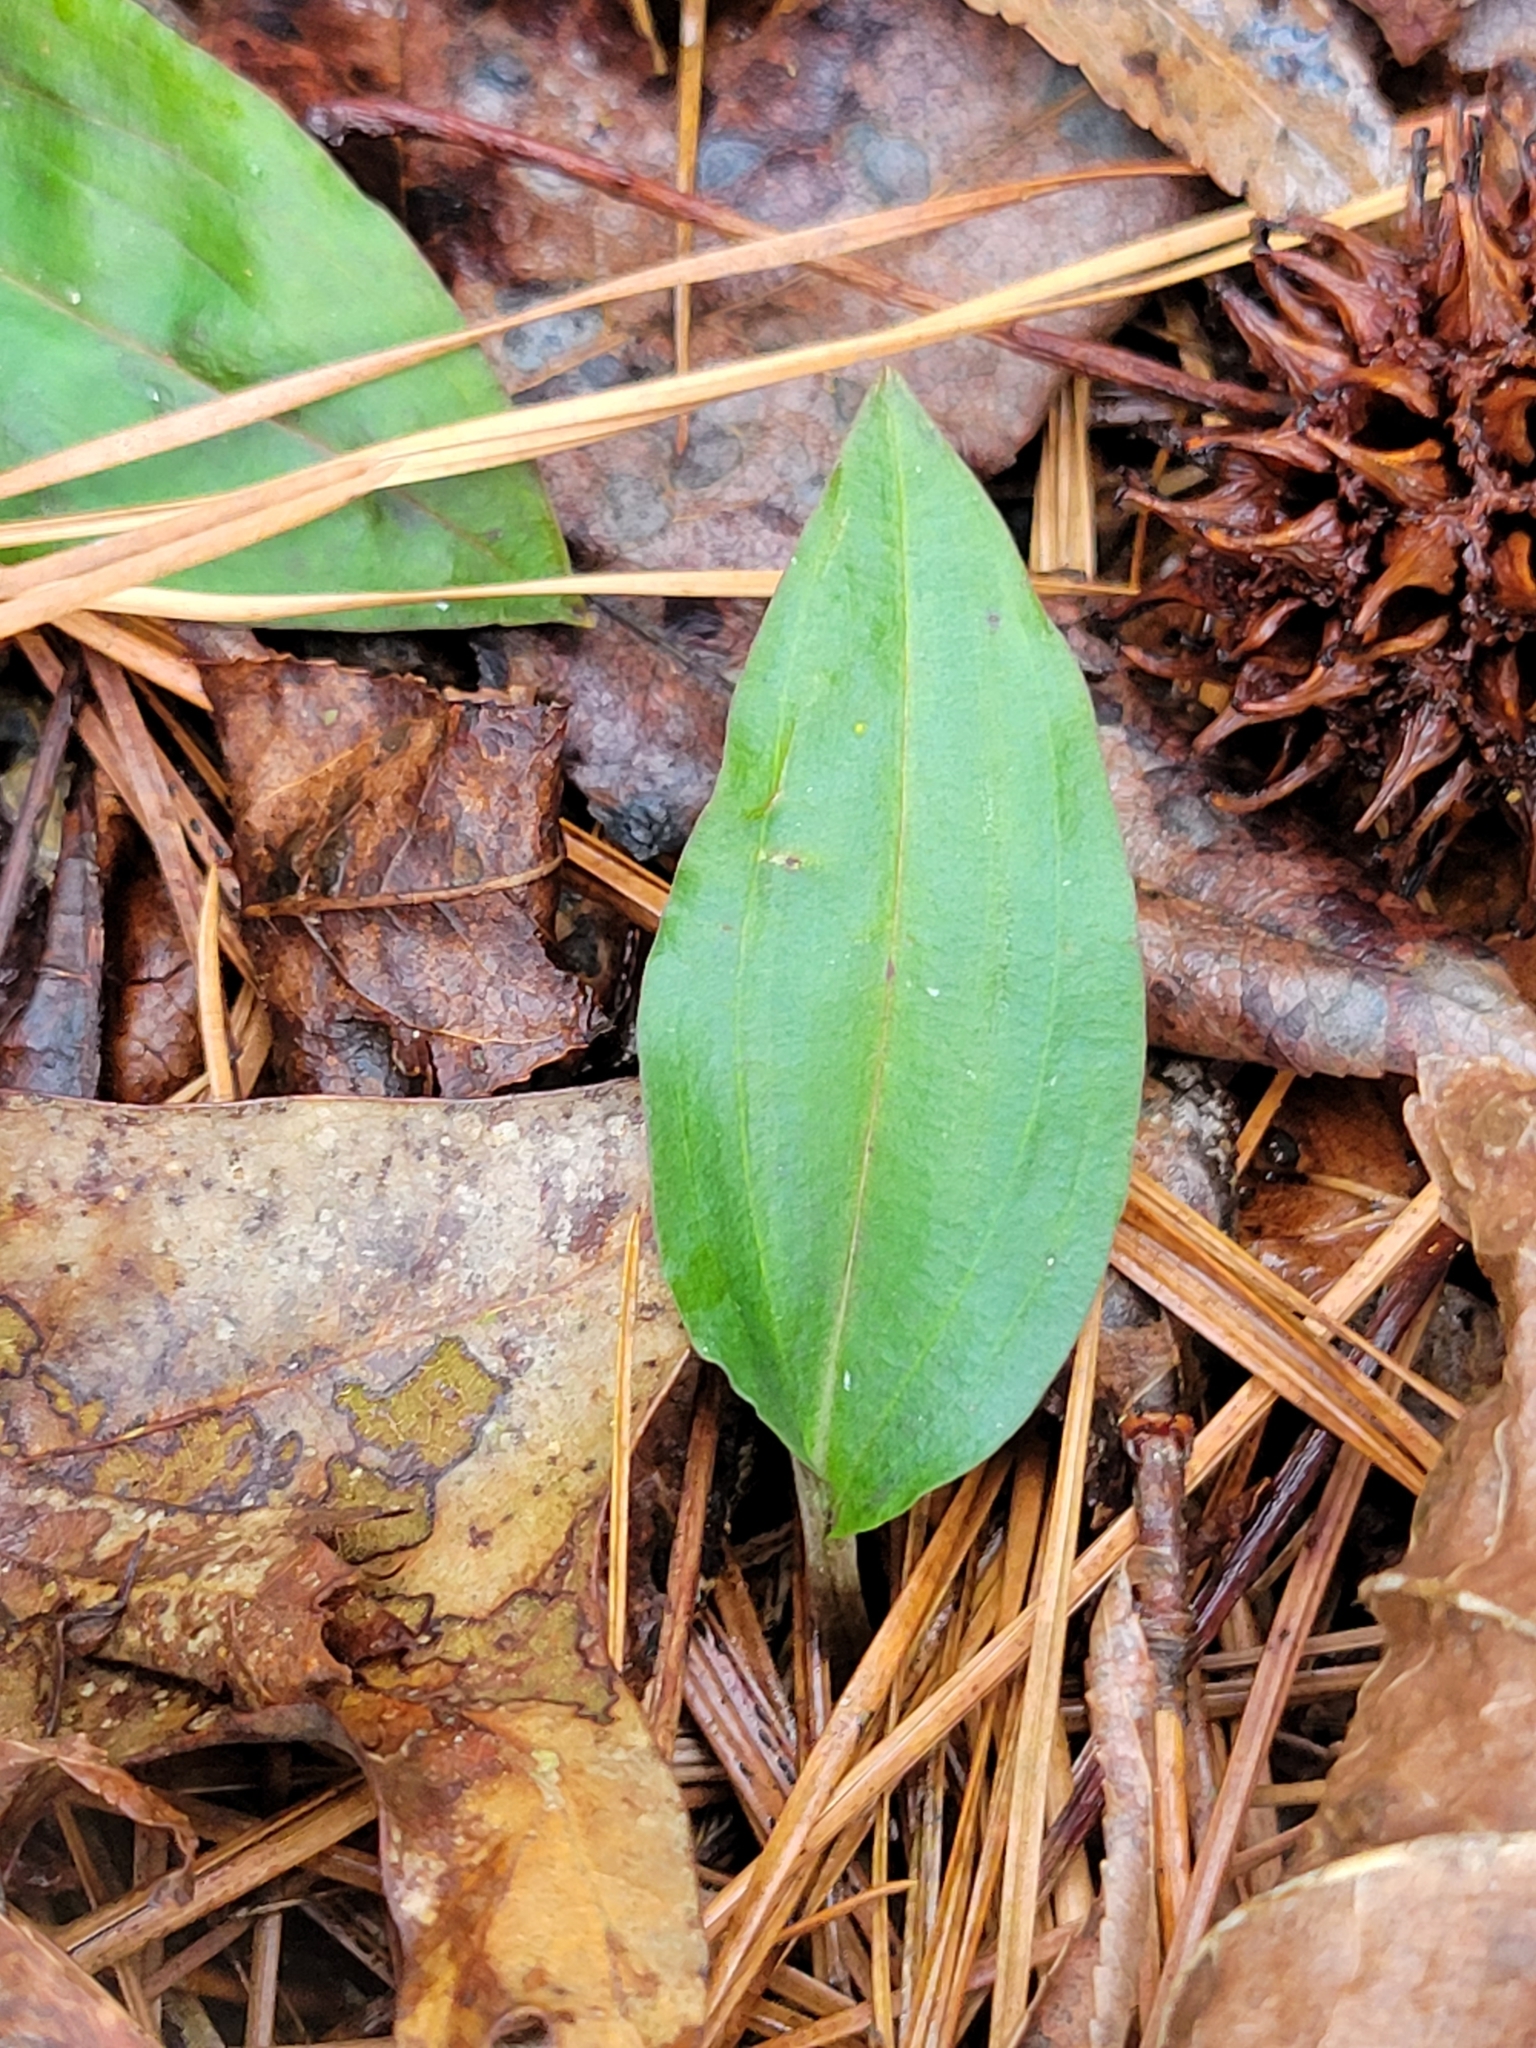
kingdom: Plantae
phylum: Tracheophyta
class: Liliopsida
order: Asparagales
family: Orchidaceae
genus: Tipularia
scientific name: Tipularia discolor
